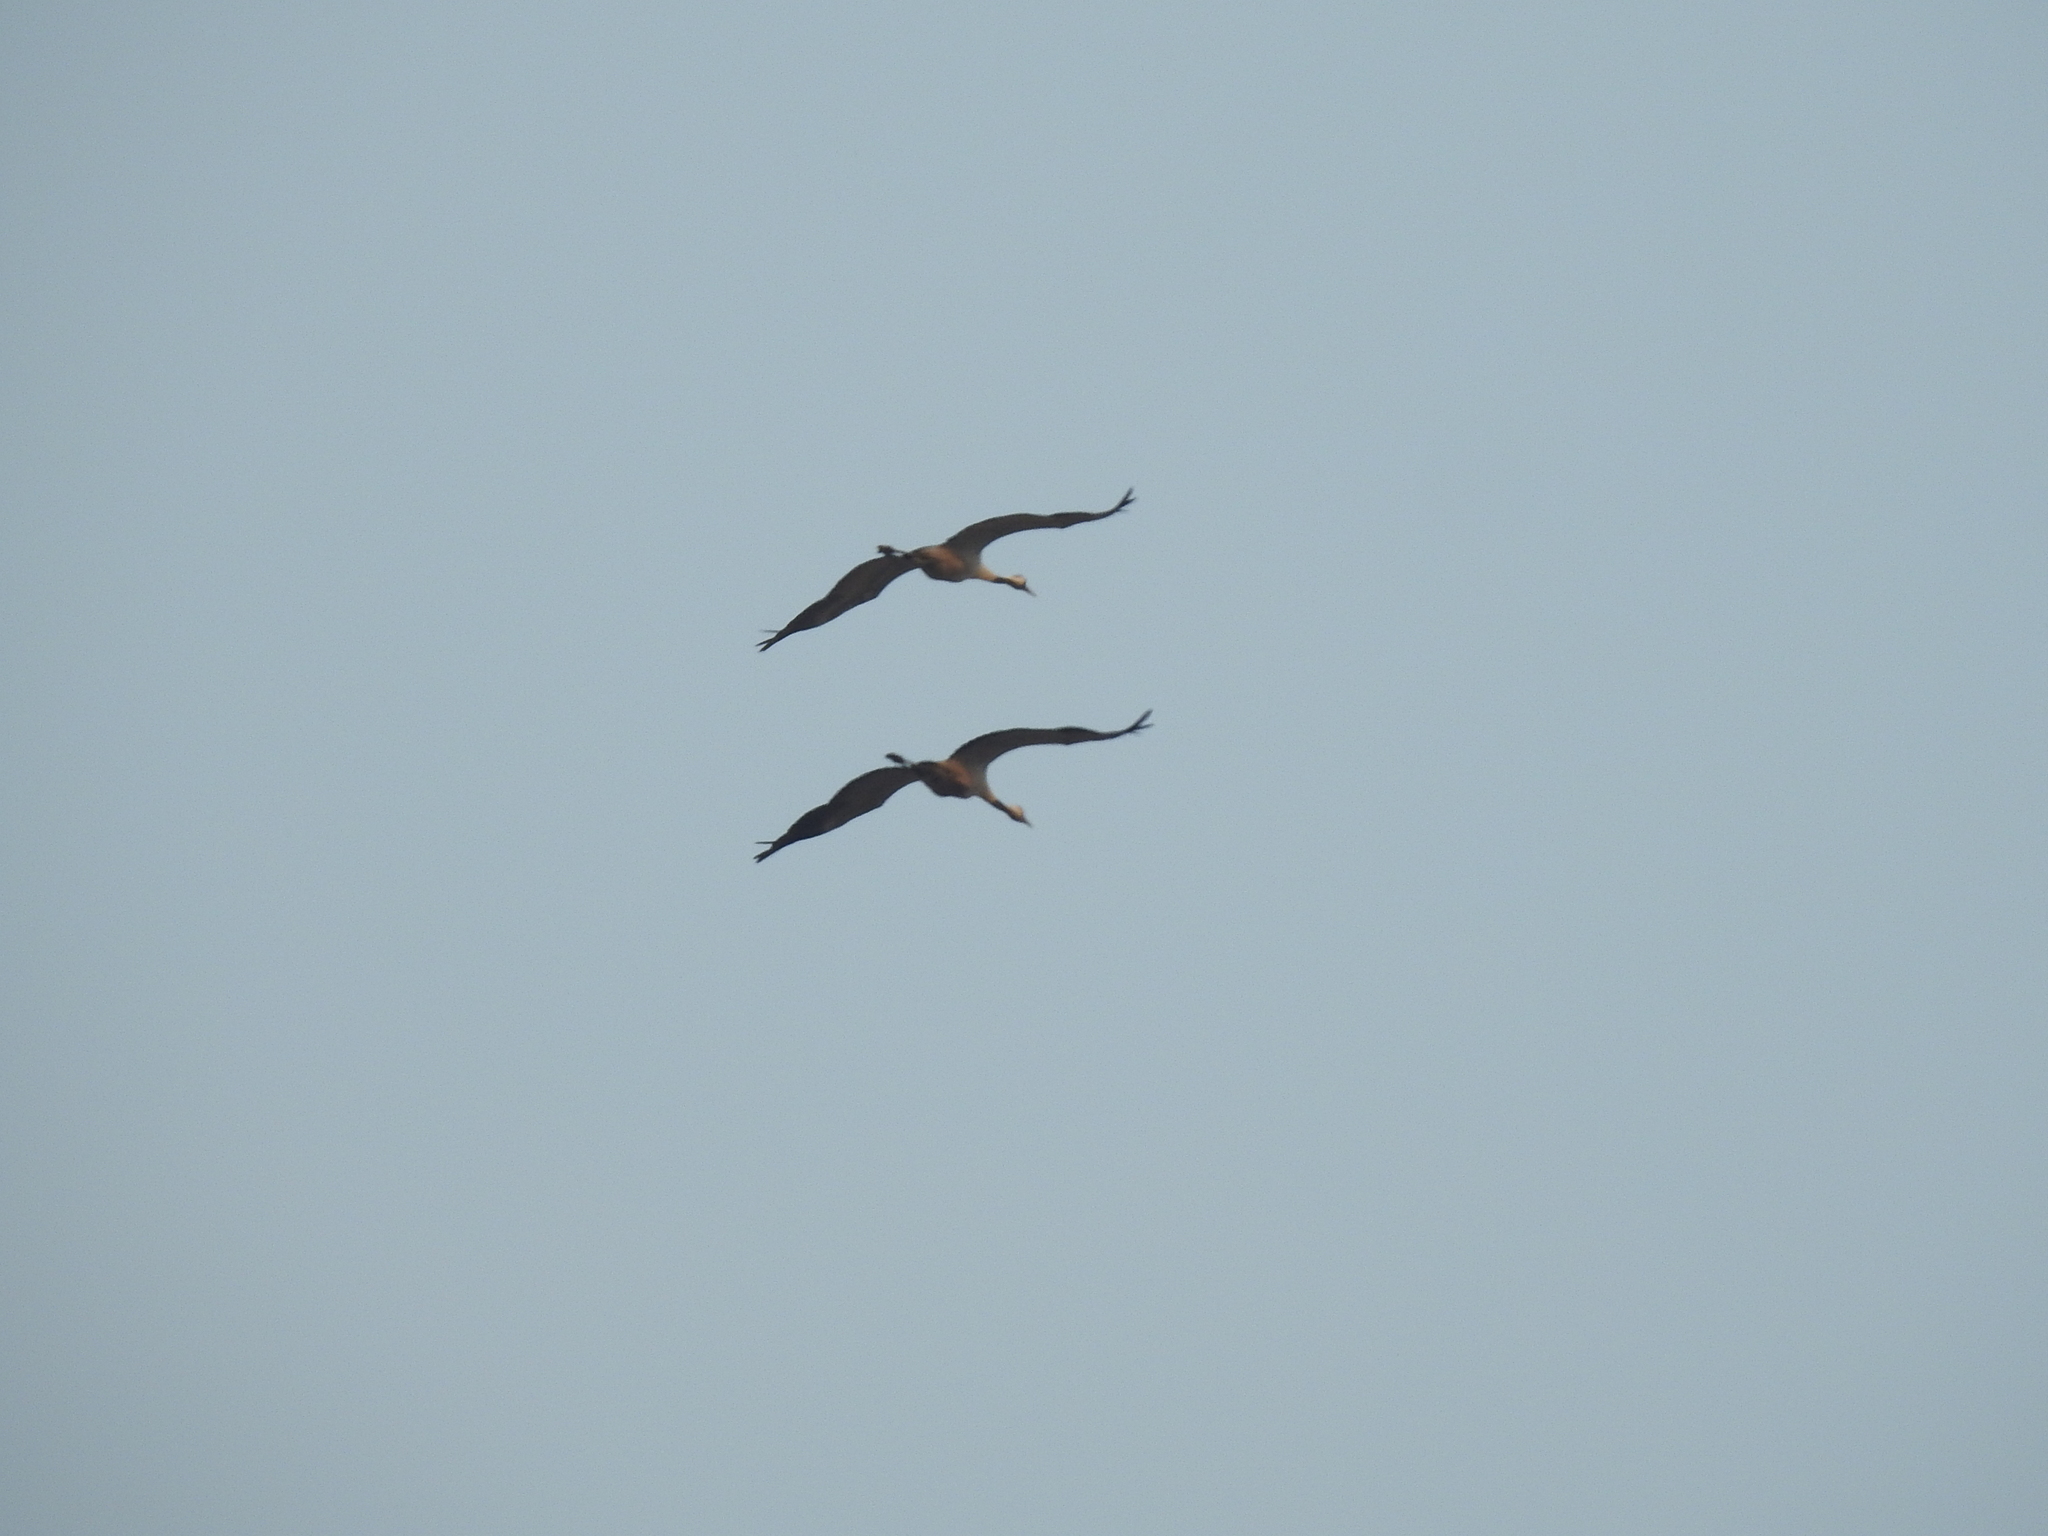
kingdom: Animalia
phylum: Chordata
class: Aves
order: Gruiformes
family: Gruidae
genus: Grus
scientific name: Grus grus
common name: Common crane
